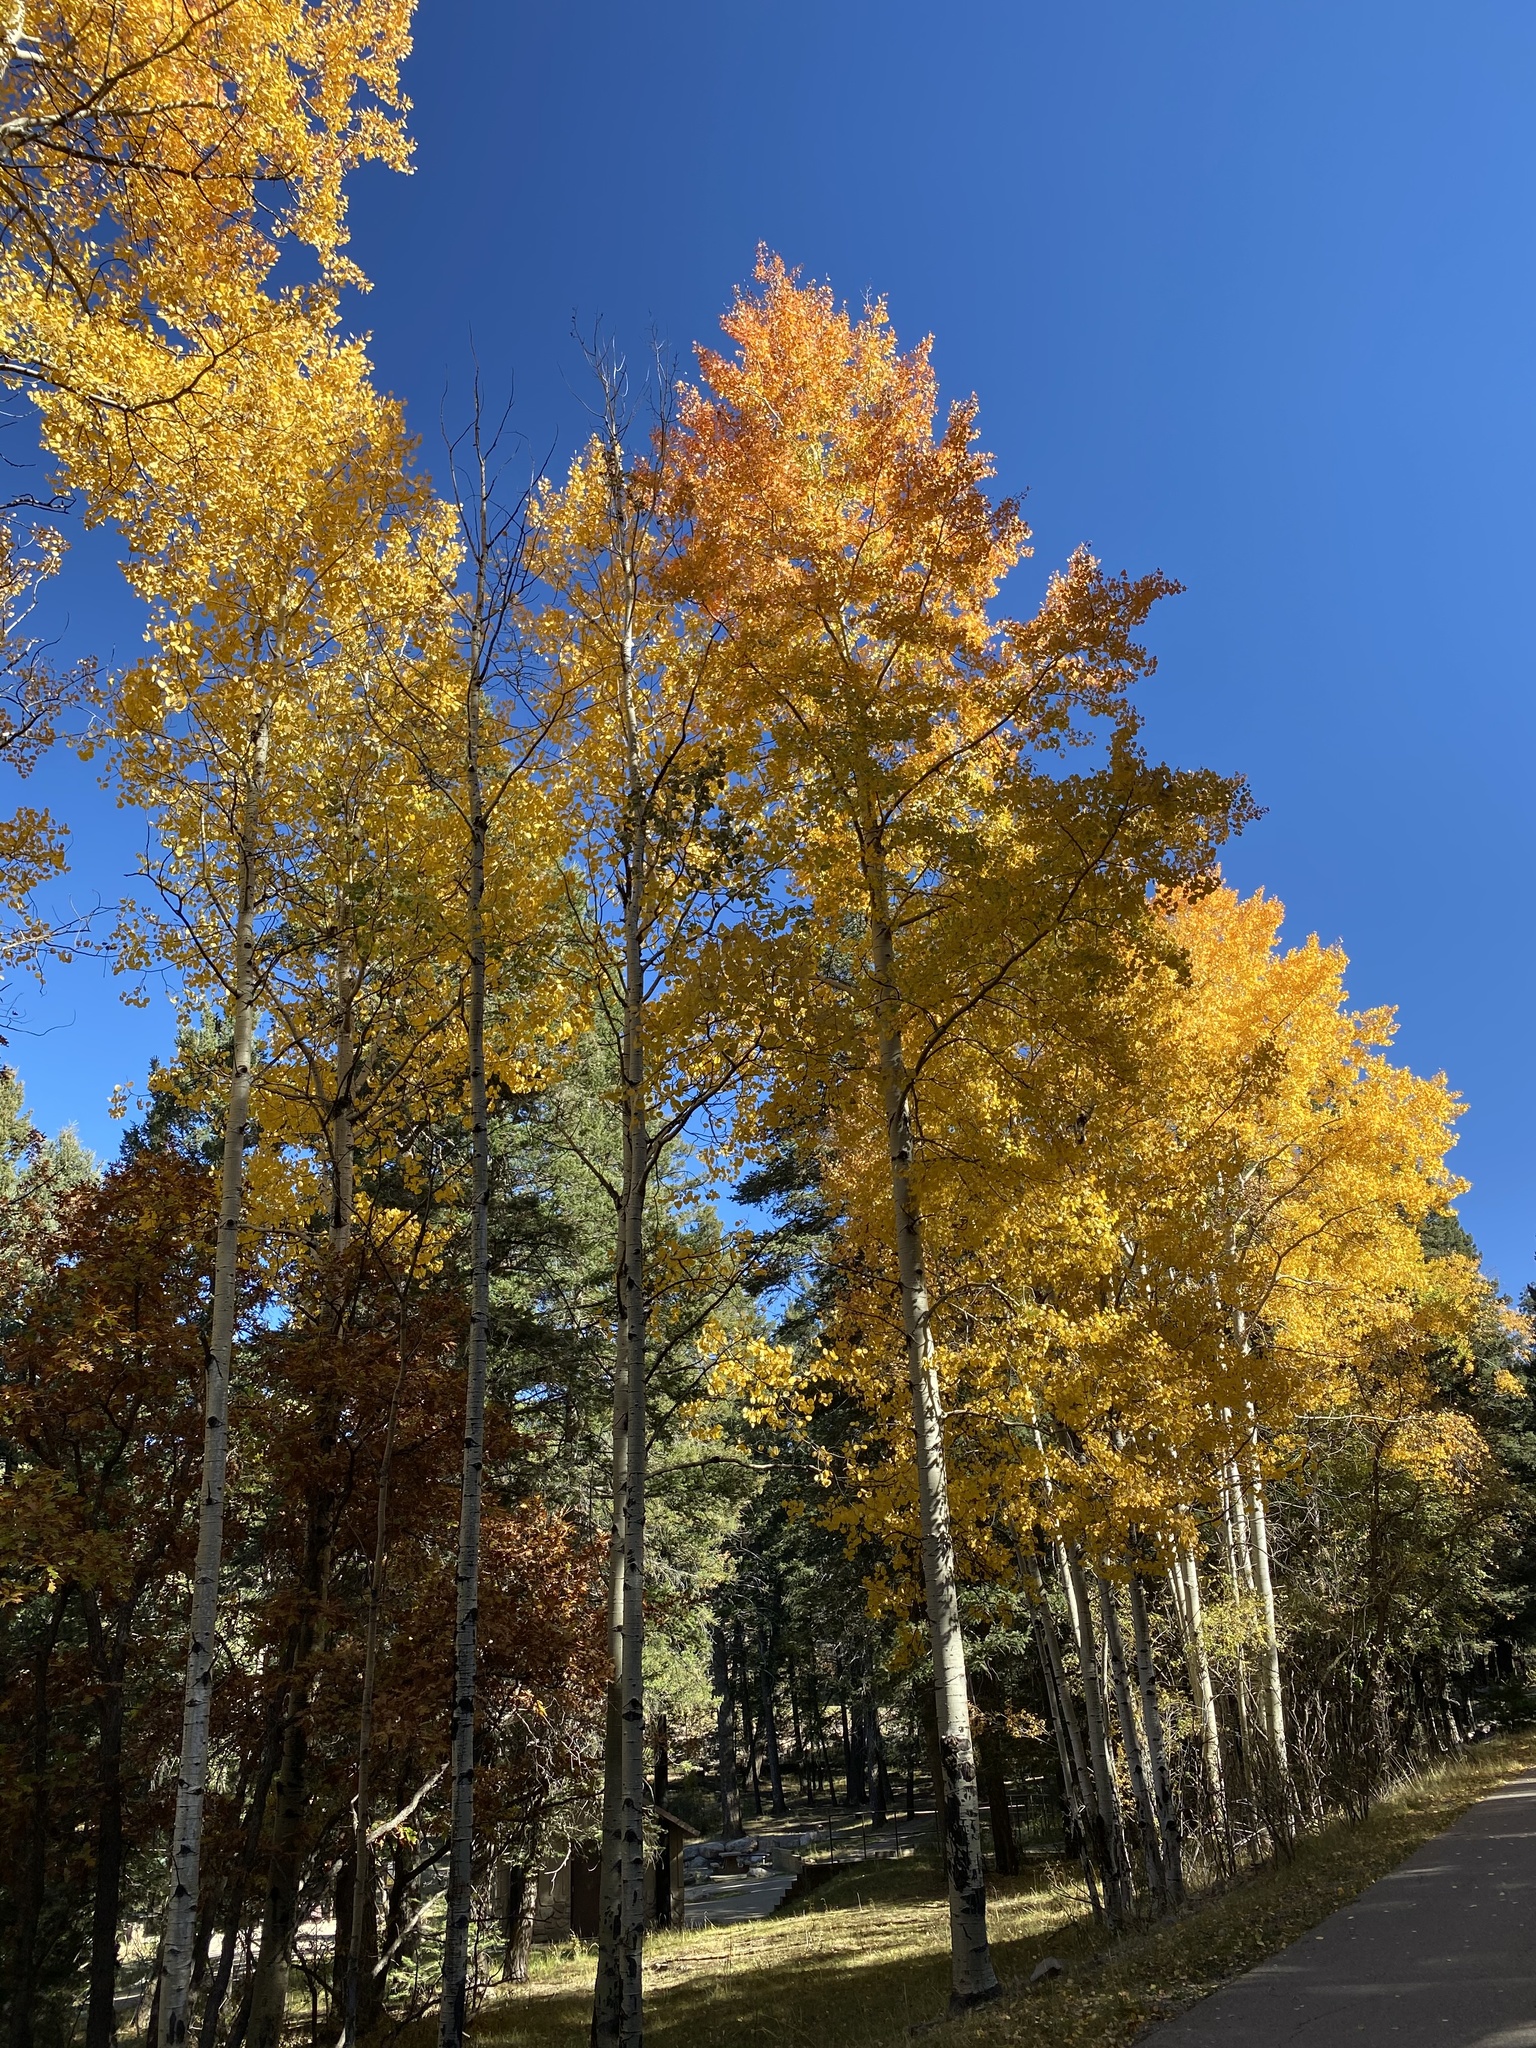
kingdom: Plantae
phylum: Tracheophyta
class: Magnoliopsida
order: Malpighiales
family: Salicaceae
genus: Populus
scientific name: Populus tremuloides
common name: Quaking aspen
